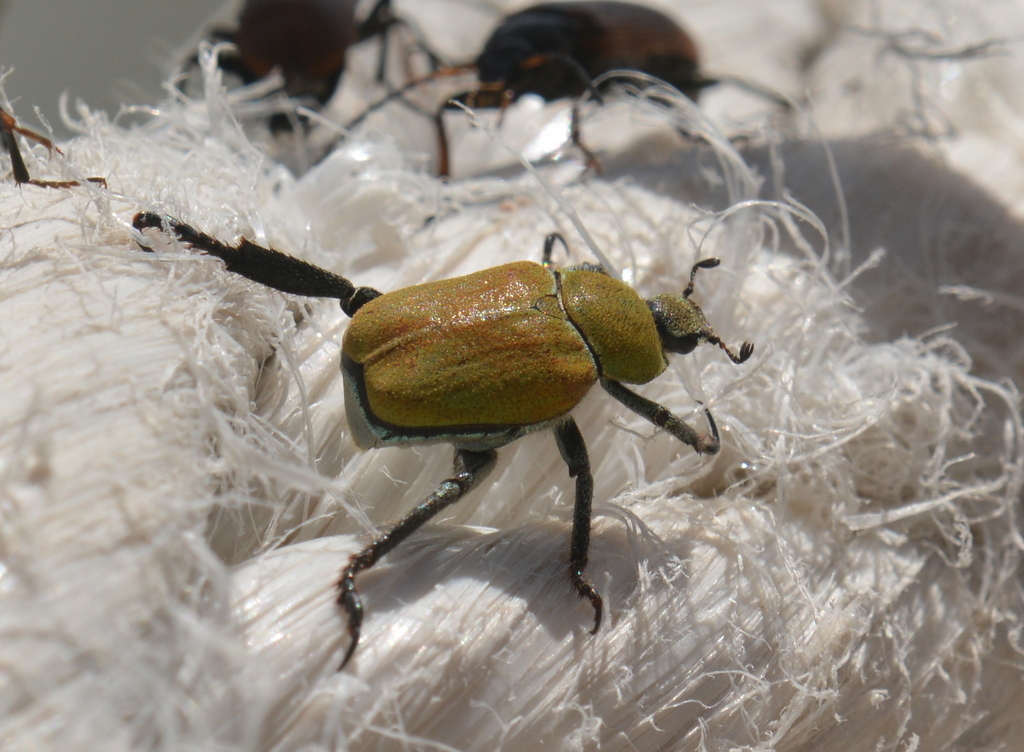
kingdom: Animalia
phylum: Arthropoda
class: Insecta
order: Coleoptera
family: Scarabaeidae
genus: Hoplia
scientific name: Hoplia argentea
